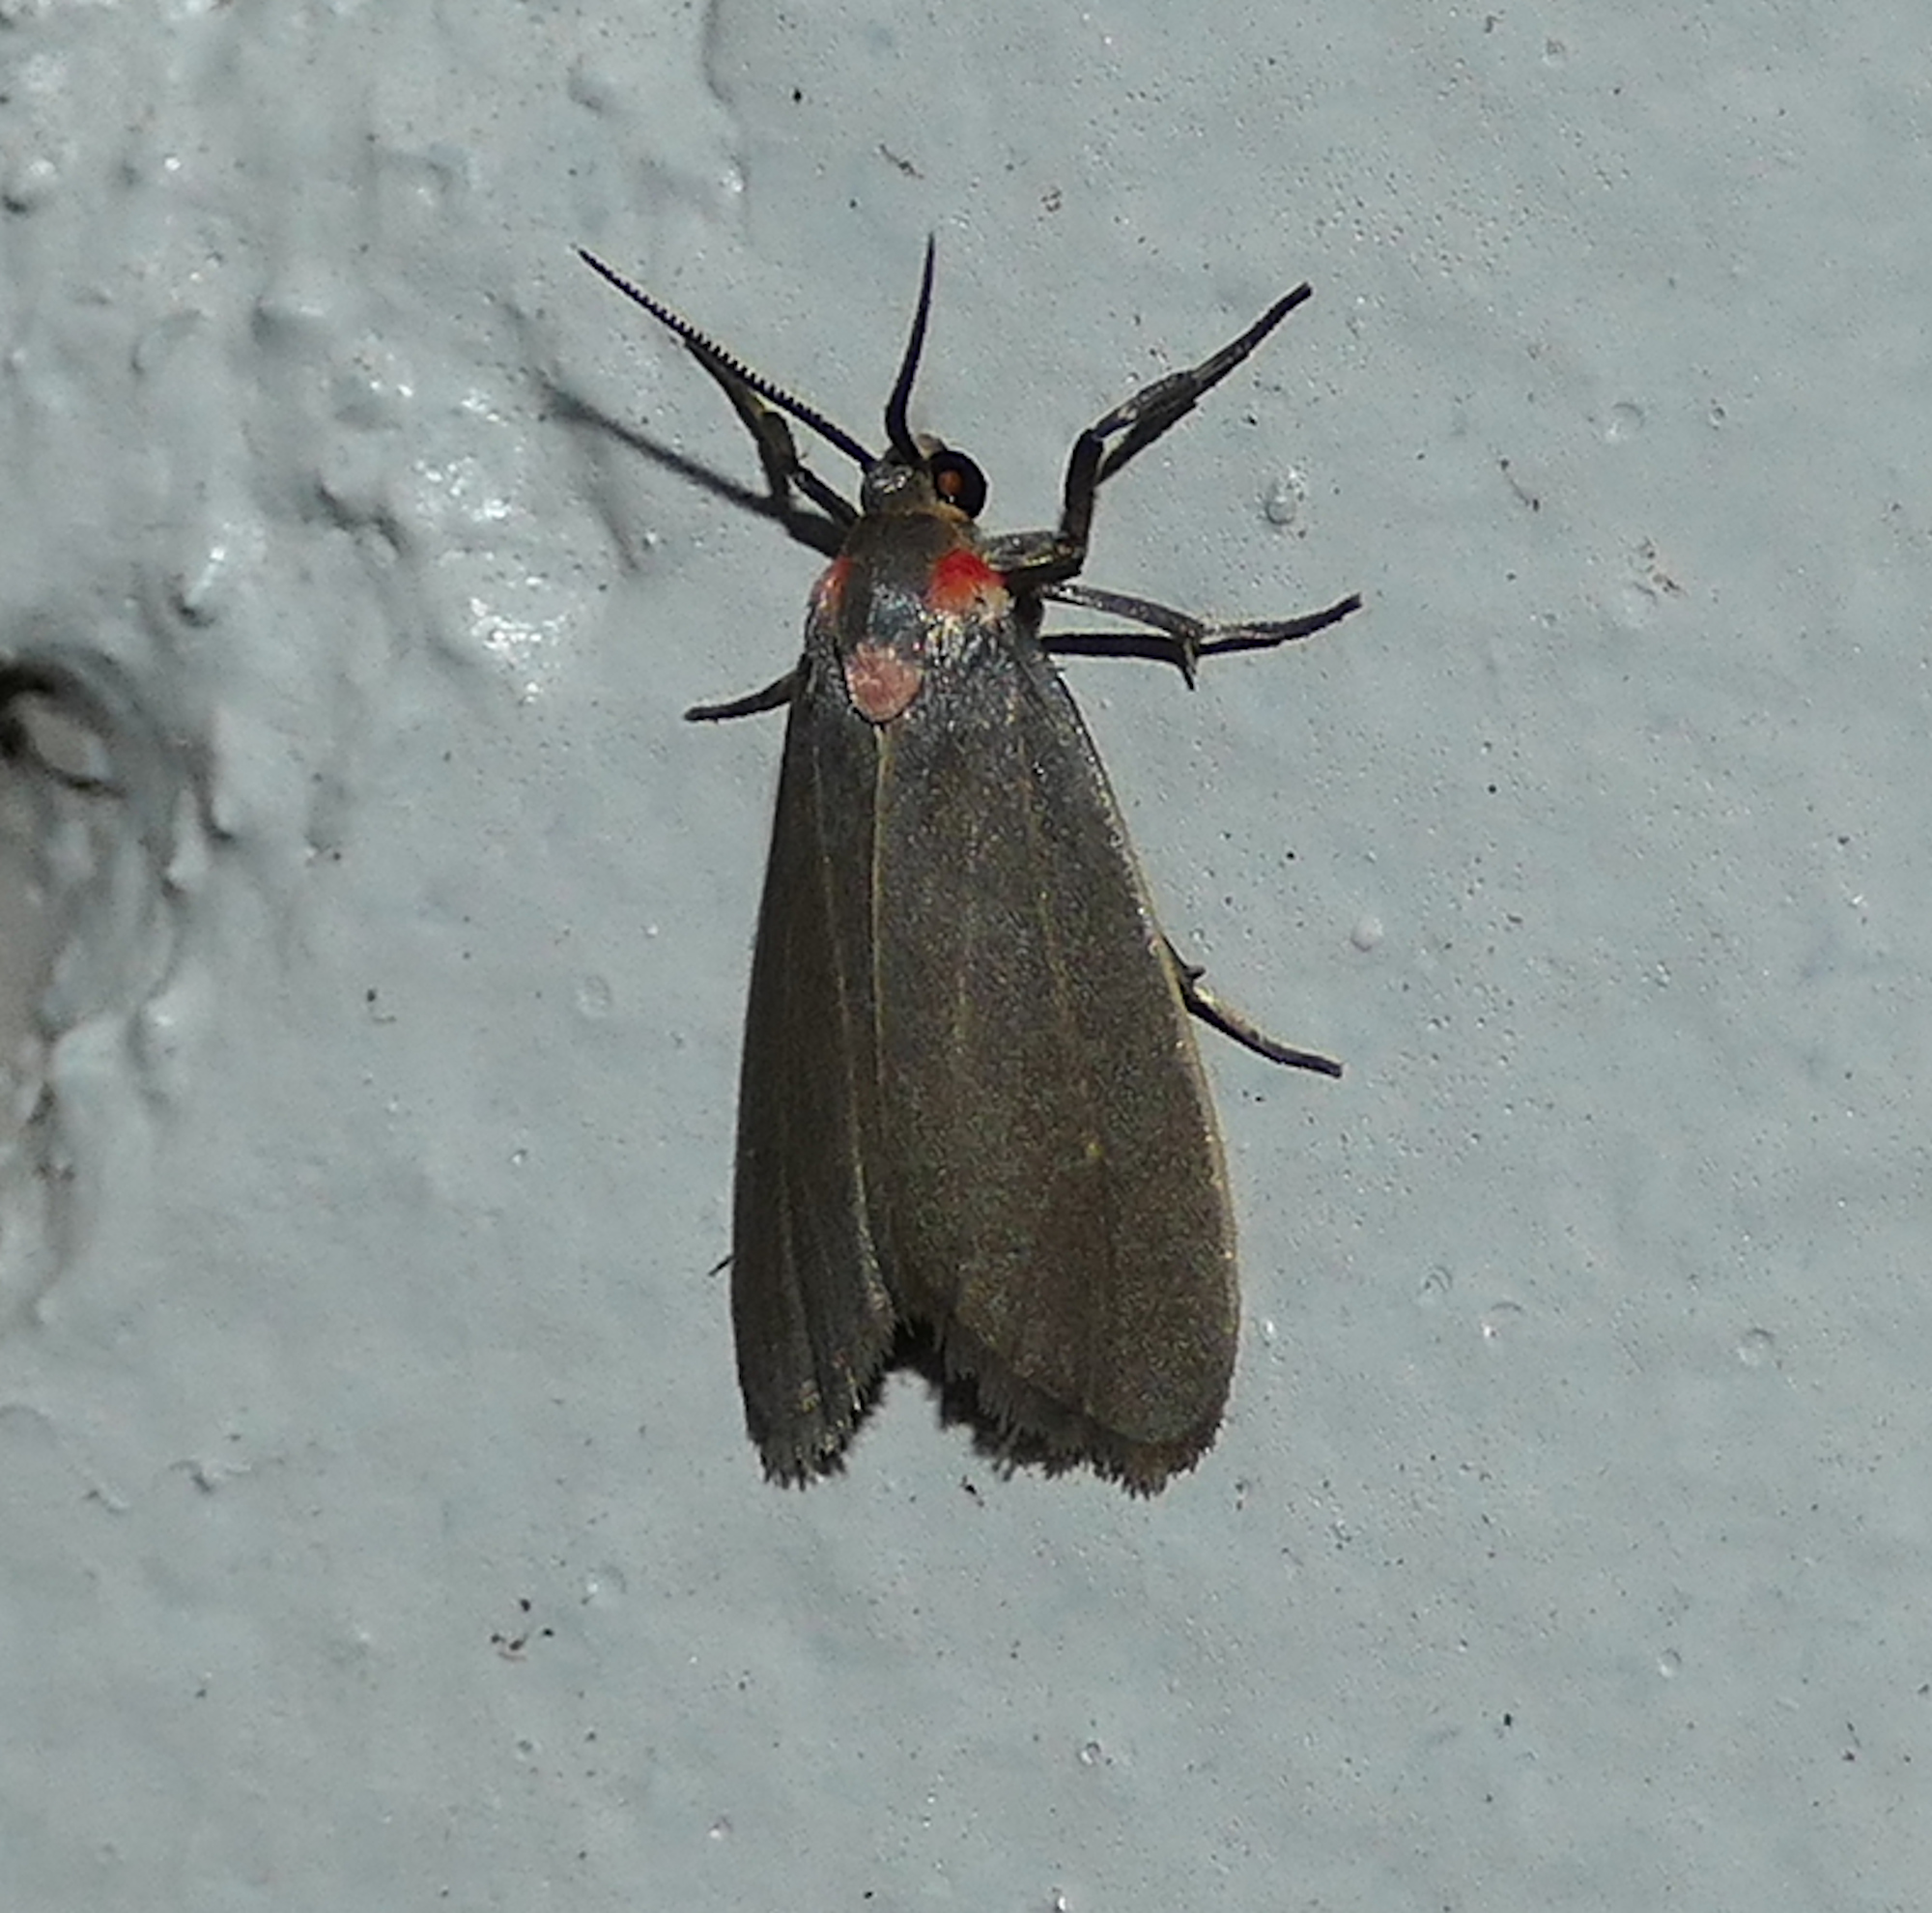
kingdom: Animalia
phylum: Arthropoda
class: Insecta
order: Lepidoptera
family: Erebidae
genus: Haematomis
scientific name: Haematomis uniformis
